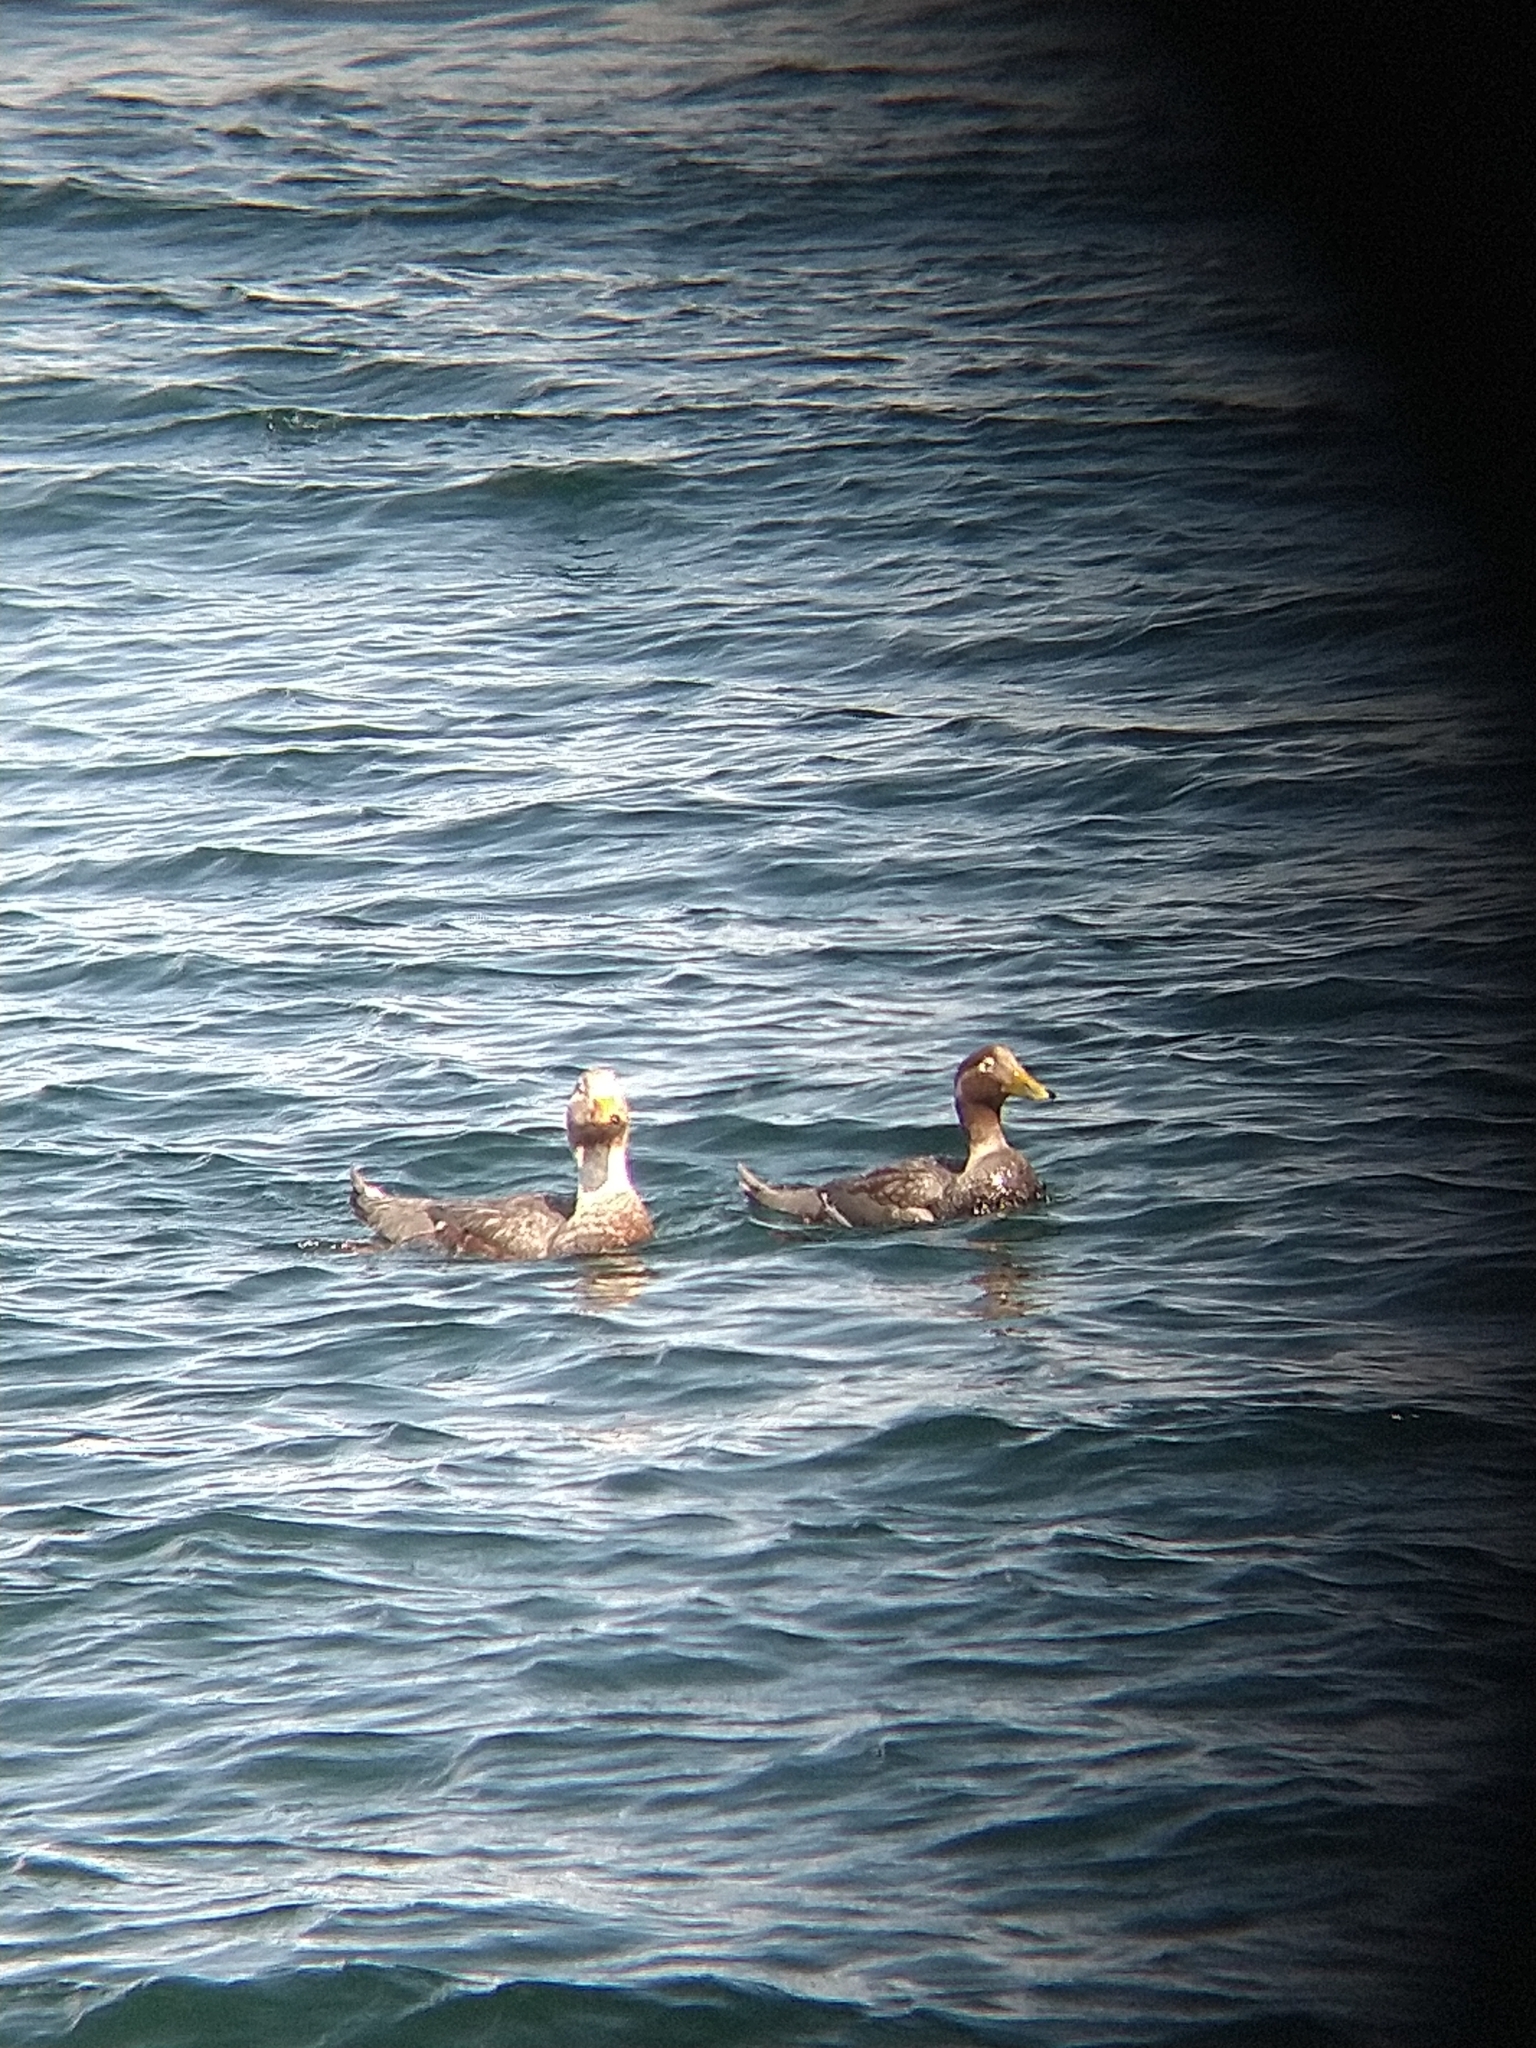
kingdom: Animalia
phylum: Chordata
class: Aves
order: Anseriformes
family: Anatidae
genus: Tachyeres
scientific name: Tachyeres patachonicus
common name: Flying steamer duck
